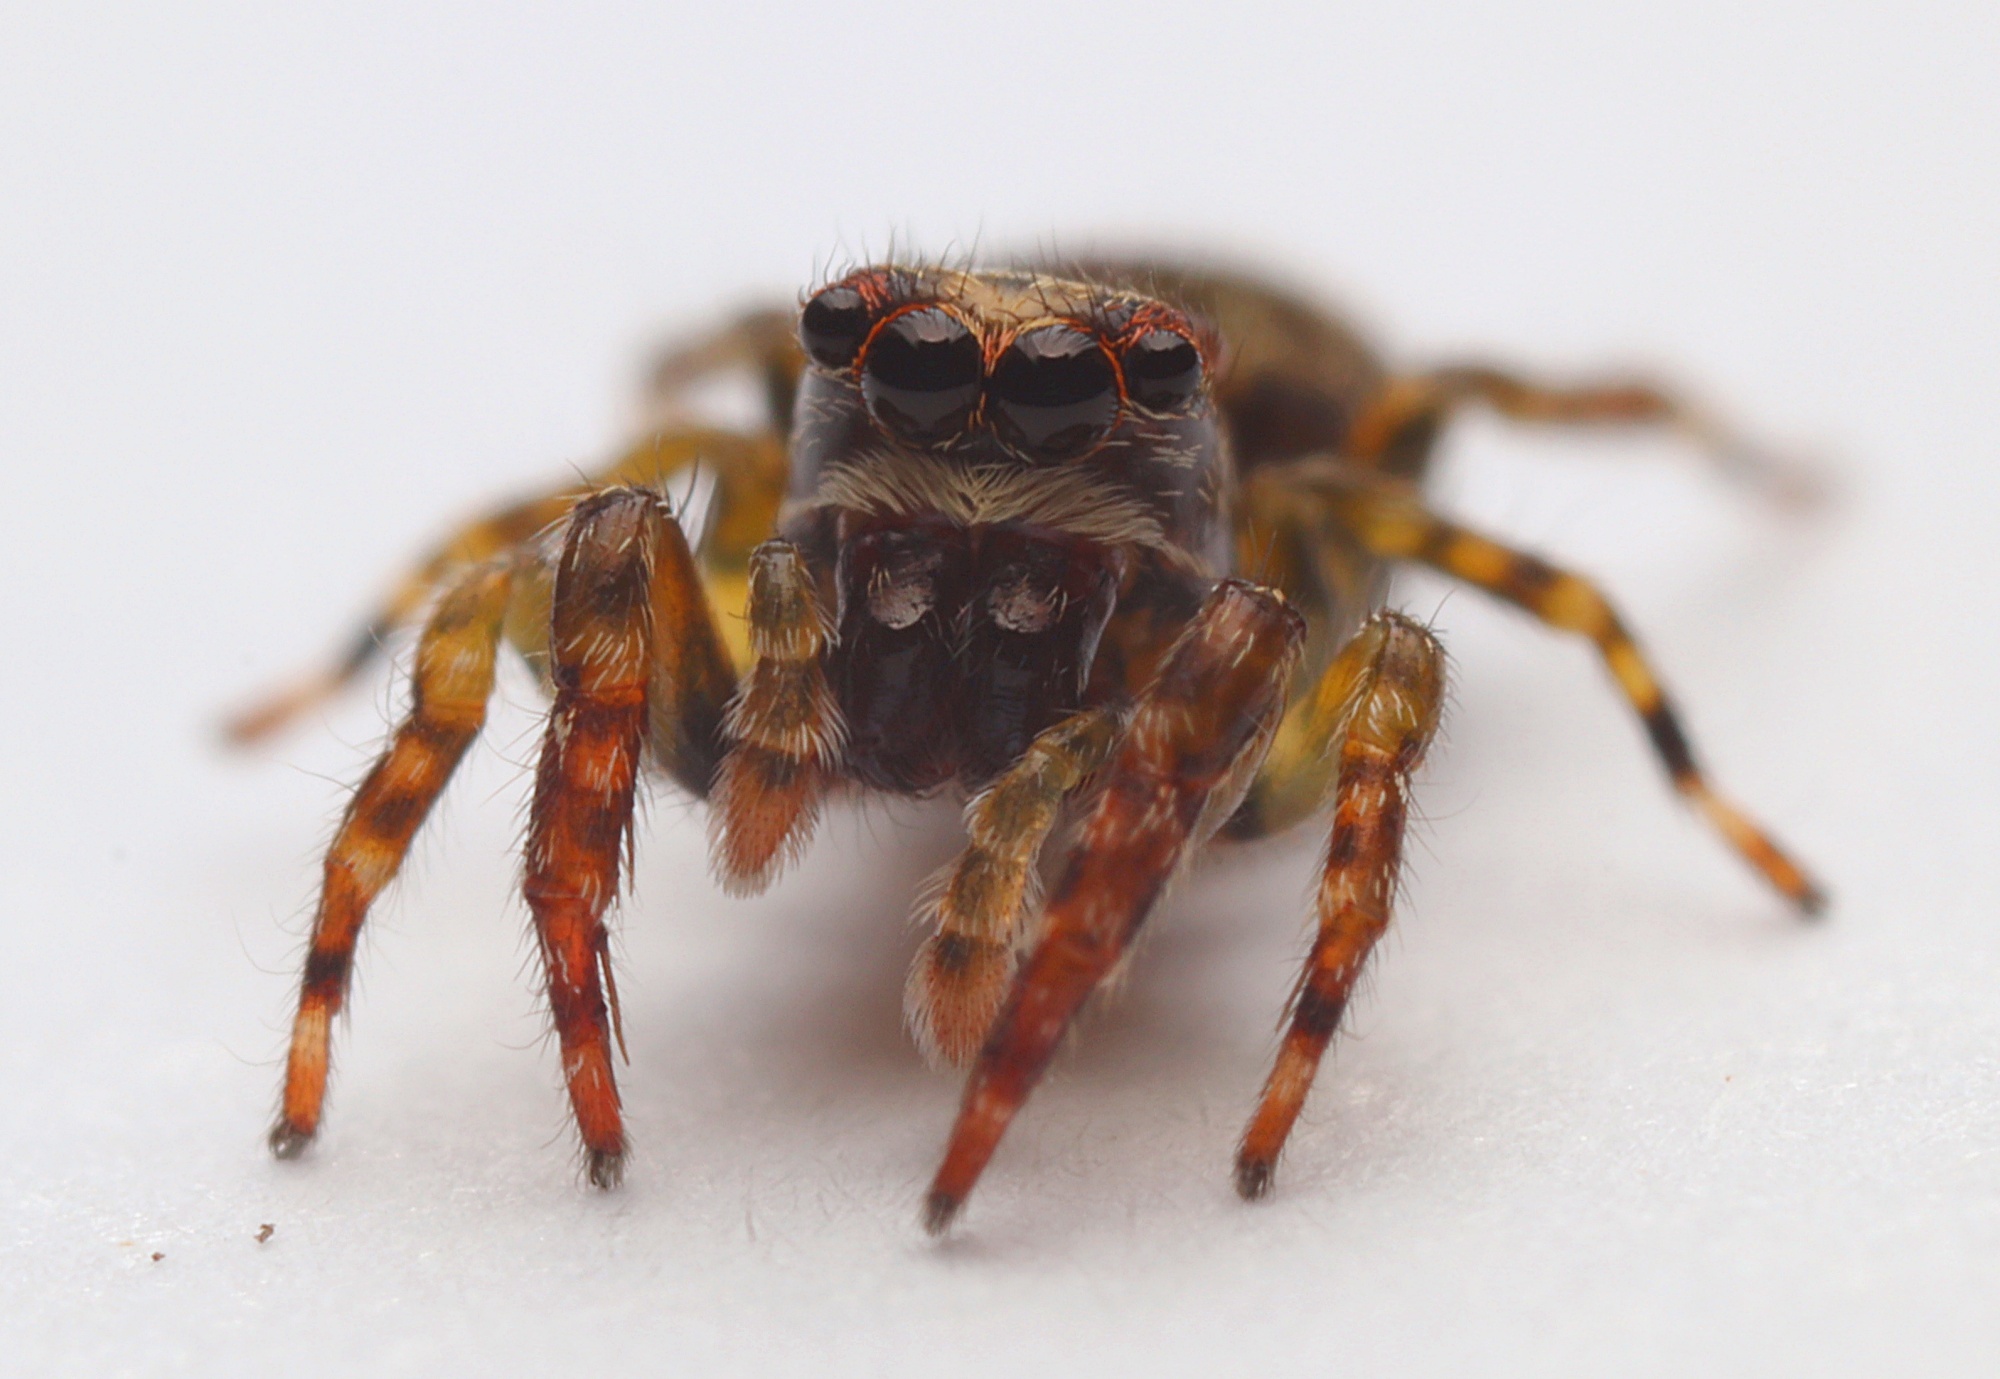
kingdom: Animalia
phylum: Arthropoda
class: Arachnida
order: Araneae
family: Salticidae
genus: Hinewaia
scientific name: Hinewaia embolica
